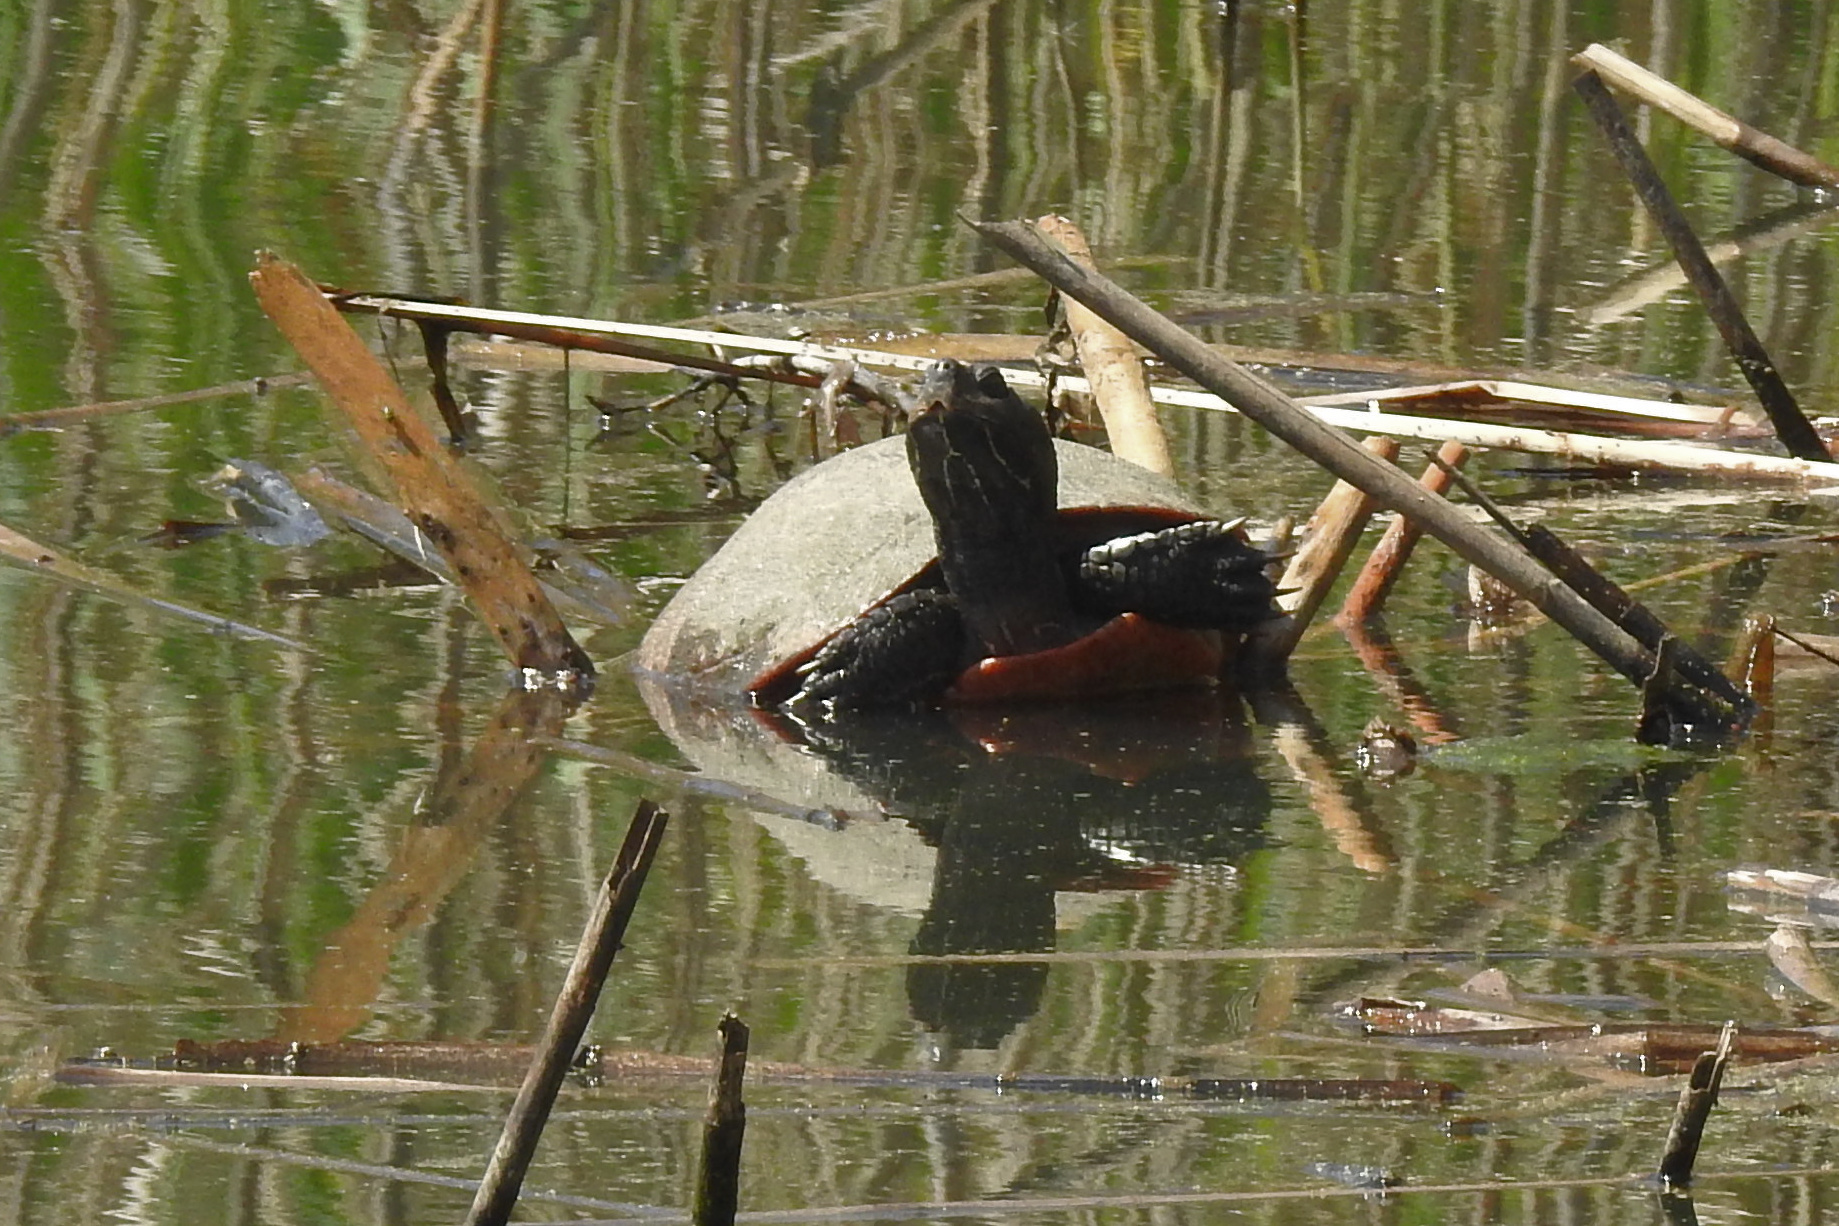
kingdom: Animalia
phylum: Chordata
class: Testudines
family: Emydidae
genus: Pseudemys
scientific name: Pseudemys rubriventris
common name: American red-bellied turtle
